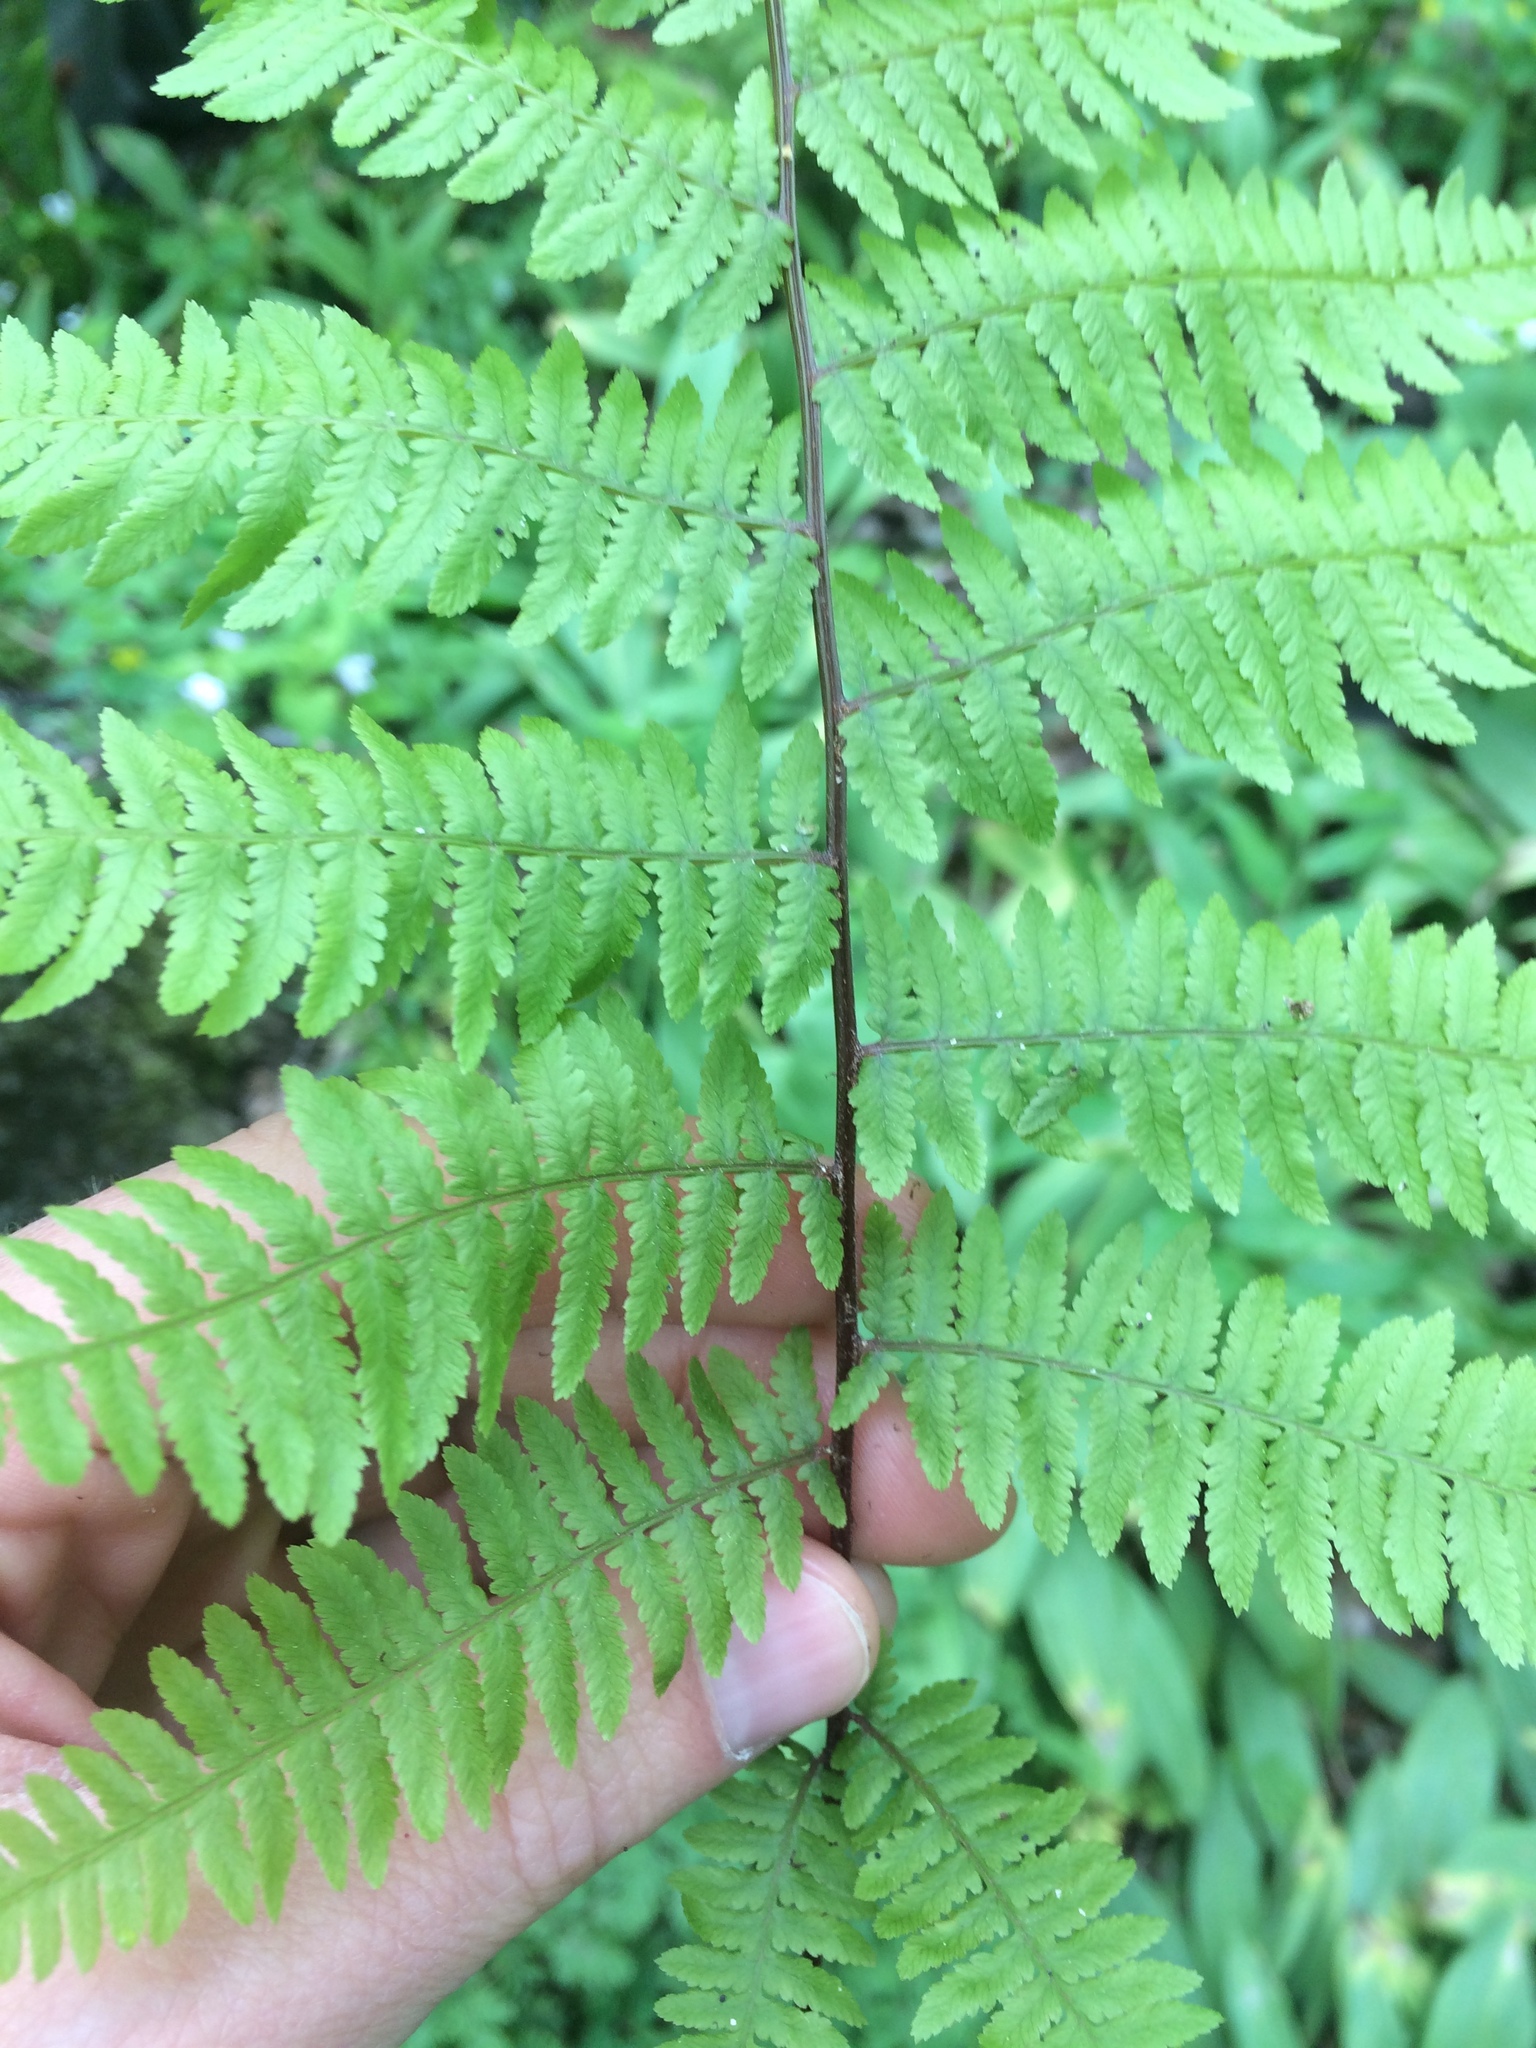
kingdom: Plantae
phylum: Tracheophyta
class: Polypodiopsida
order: Polypodiales
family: Athyriaceae
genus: Athyrium
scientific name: Athyrium angustum
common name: Northern lady fern
